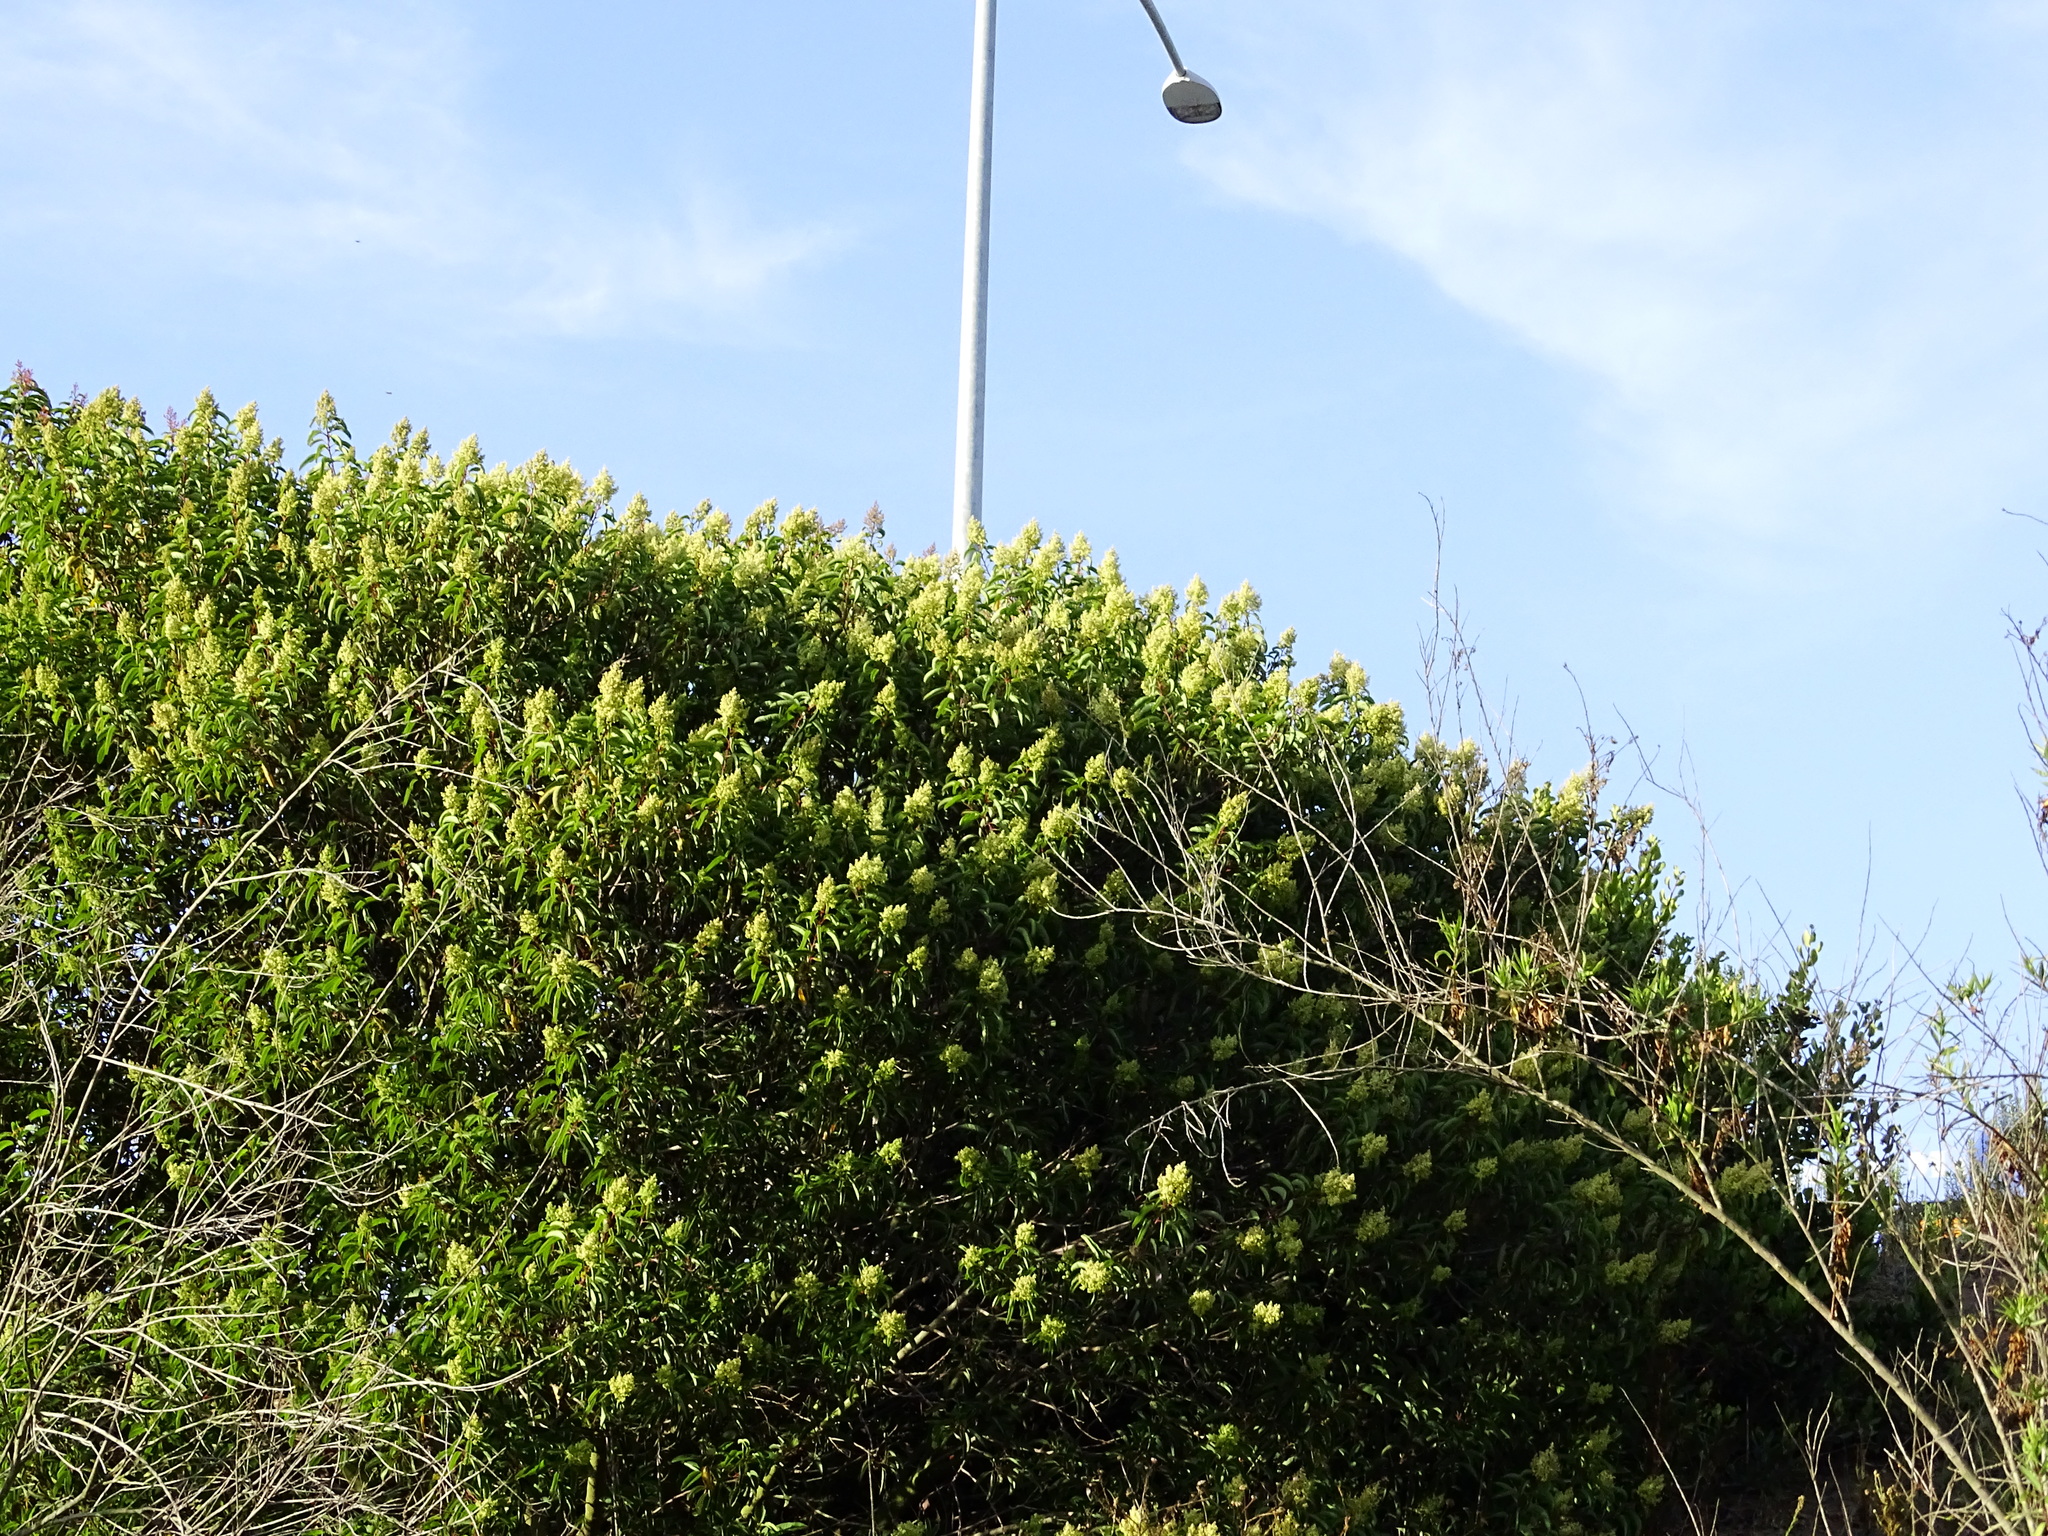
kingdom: Plantae
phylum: Tracheophyta
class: Magnoliopsida
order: Sapindales
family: Anacardiaceae
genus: Malosma
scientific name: Malosma laurina
